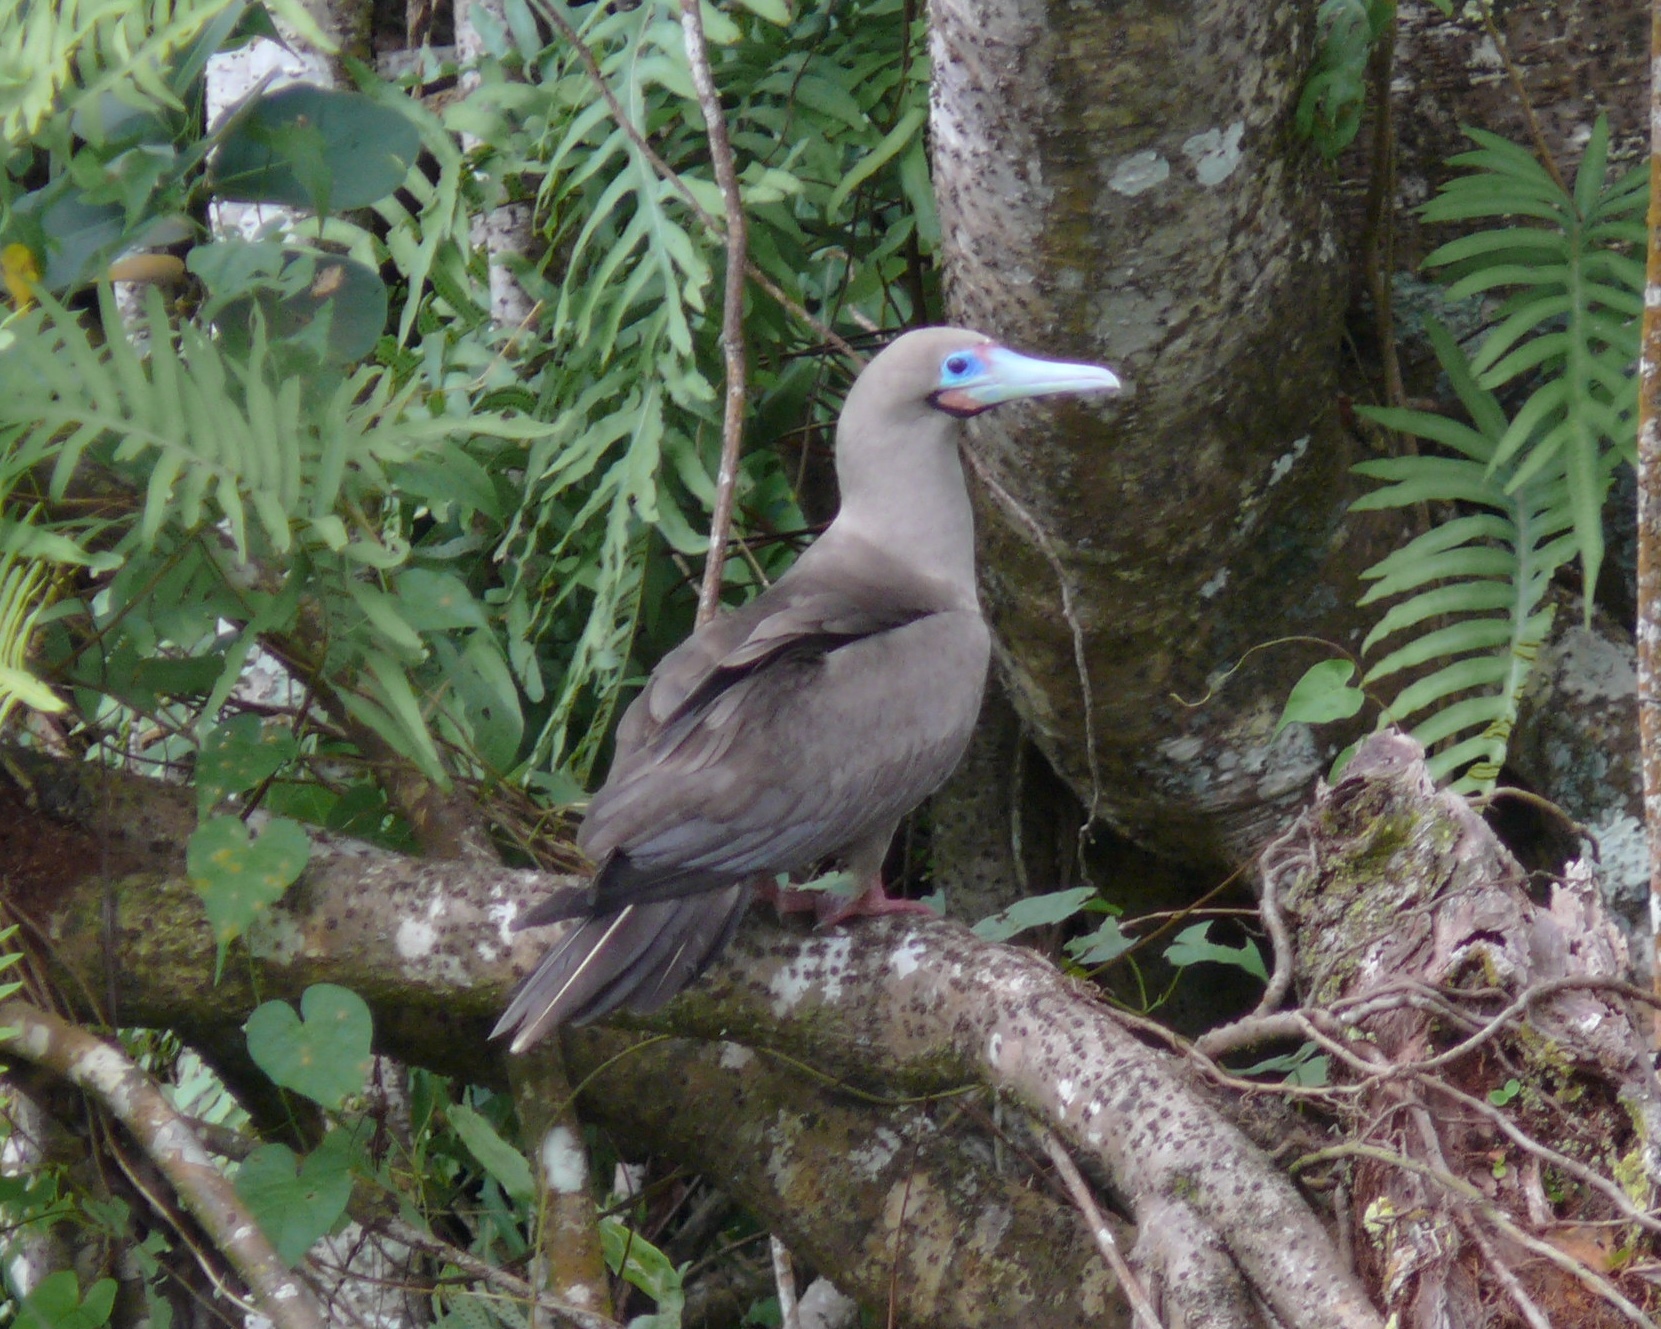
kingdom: Animalia
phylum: Chordata
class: Aves
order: Suliformes
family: Sulidae
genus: Sula
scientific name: Sula sula
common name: Red-footed booby
